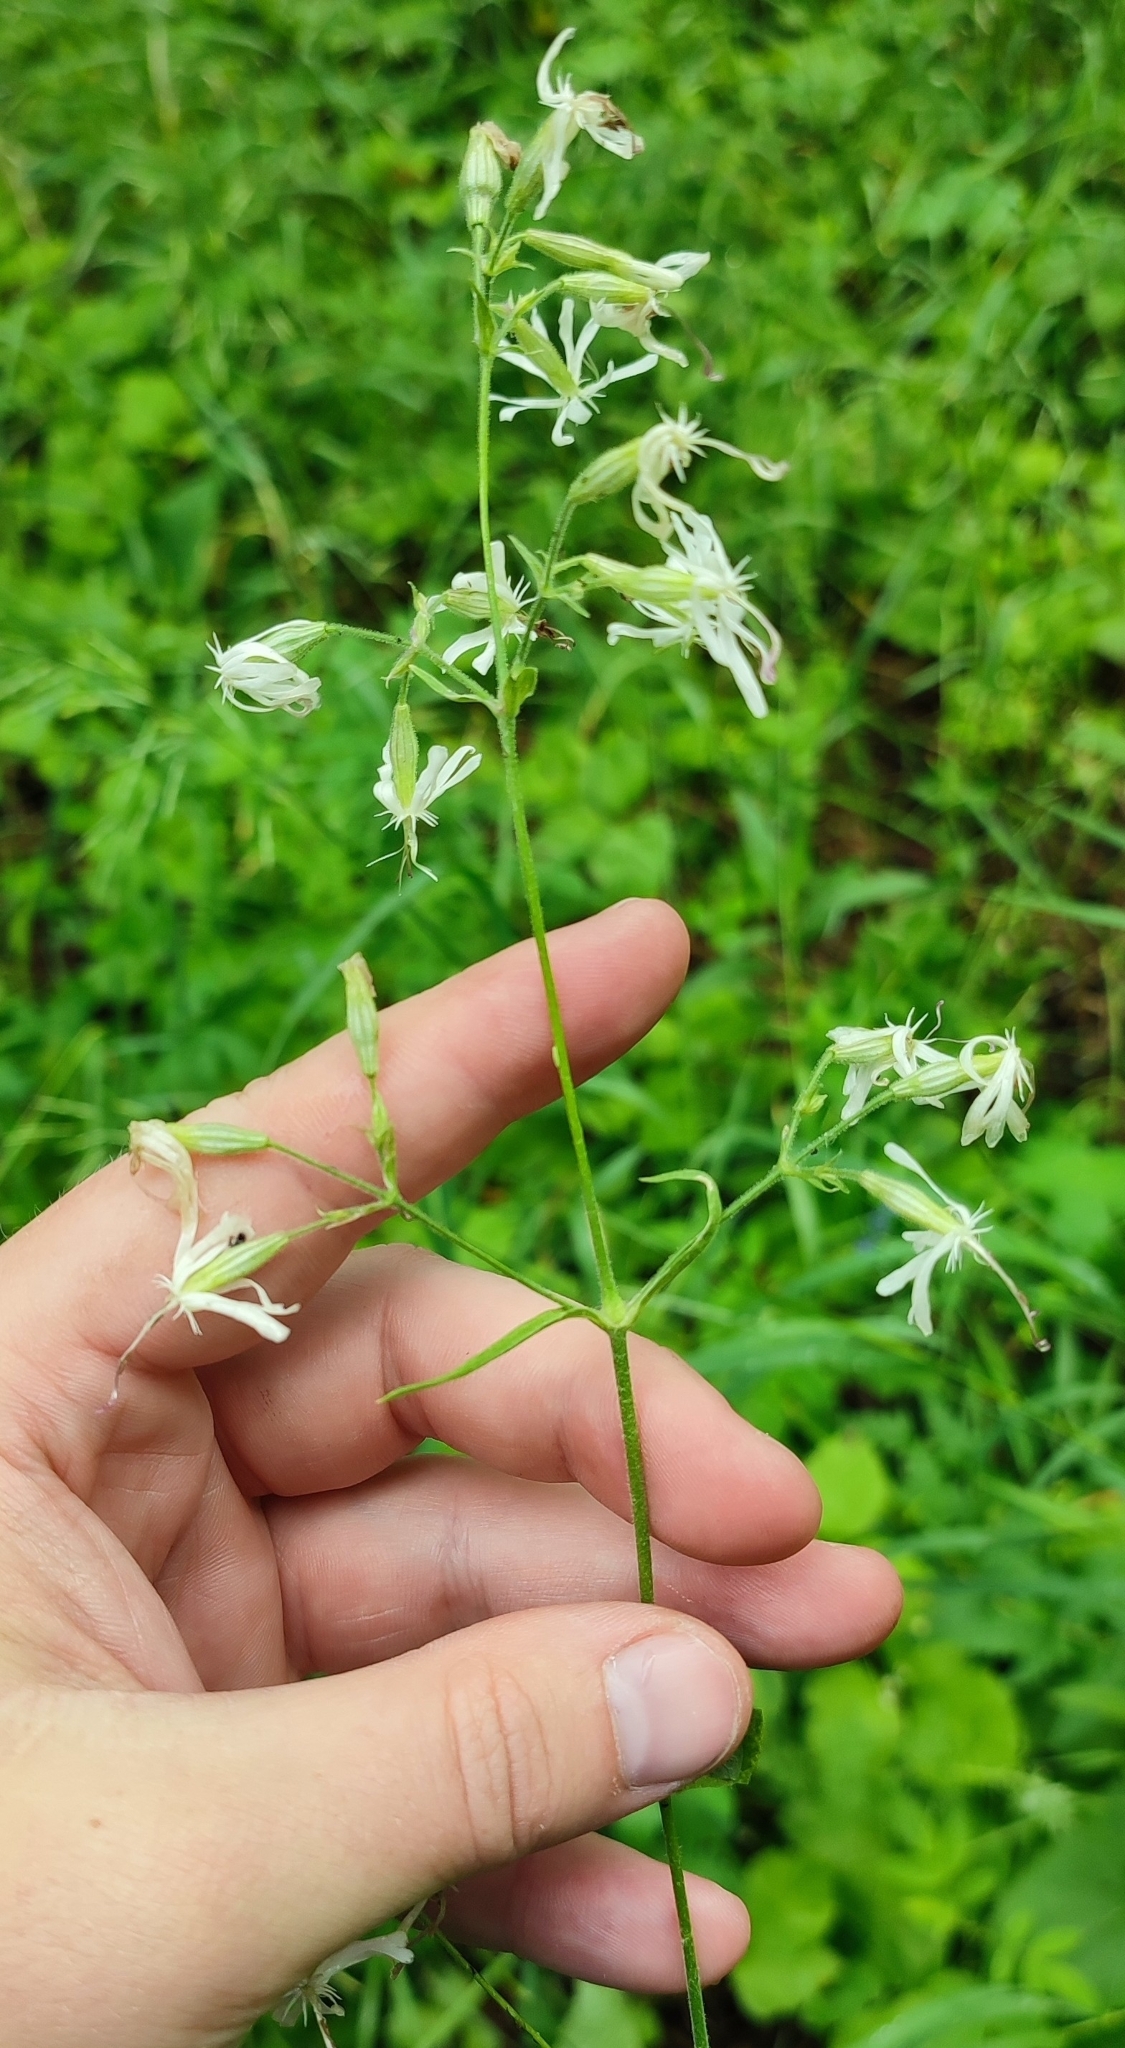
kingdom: Plantae
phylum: Tracheophyta
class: Magnoliopsida
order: Caryophyllales
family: Caryophyllaceae
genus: Silene
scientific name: Silene nutans
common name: Nottingham catchfly
